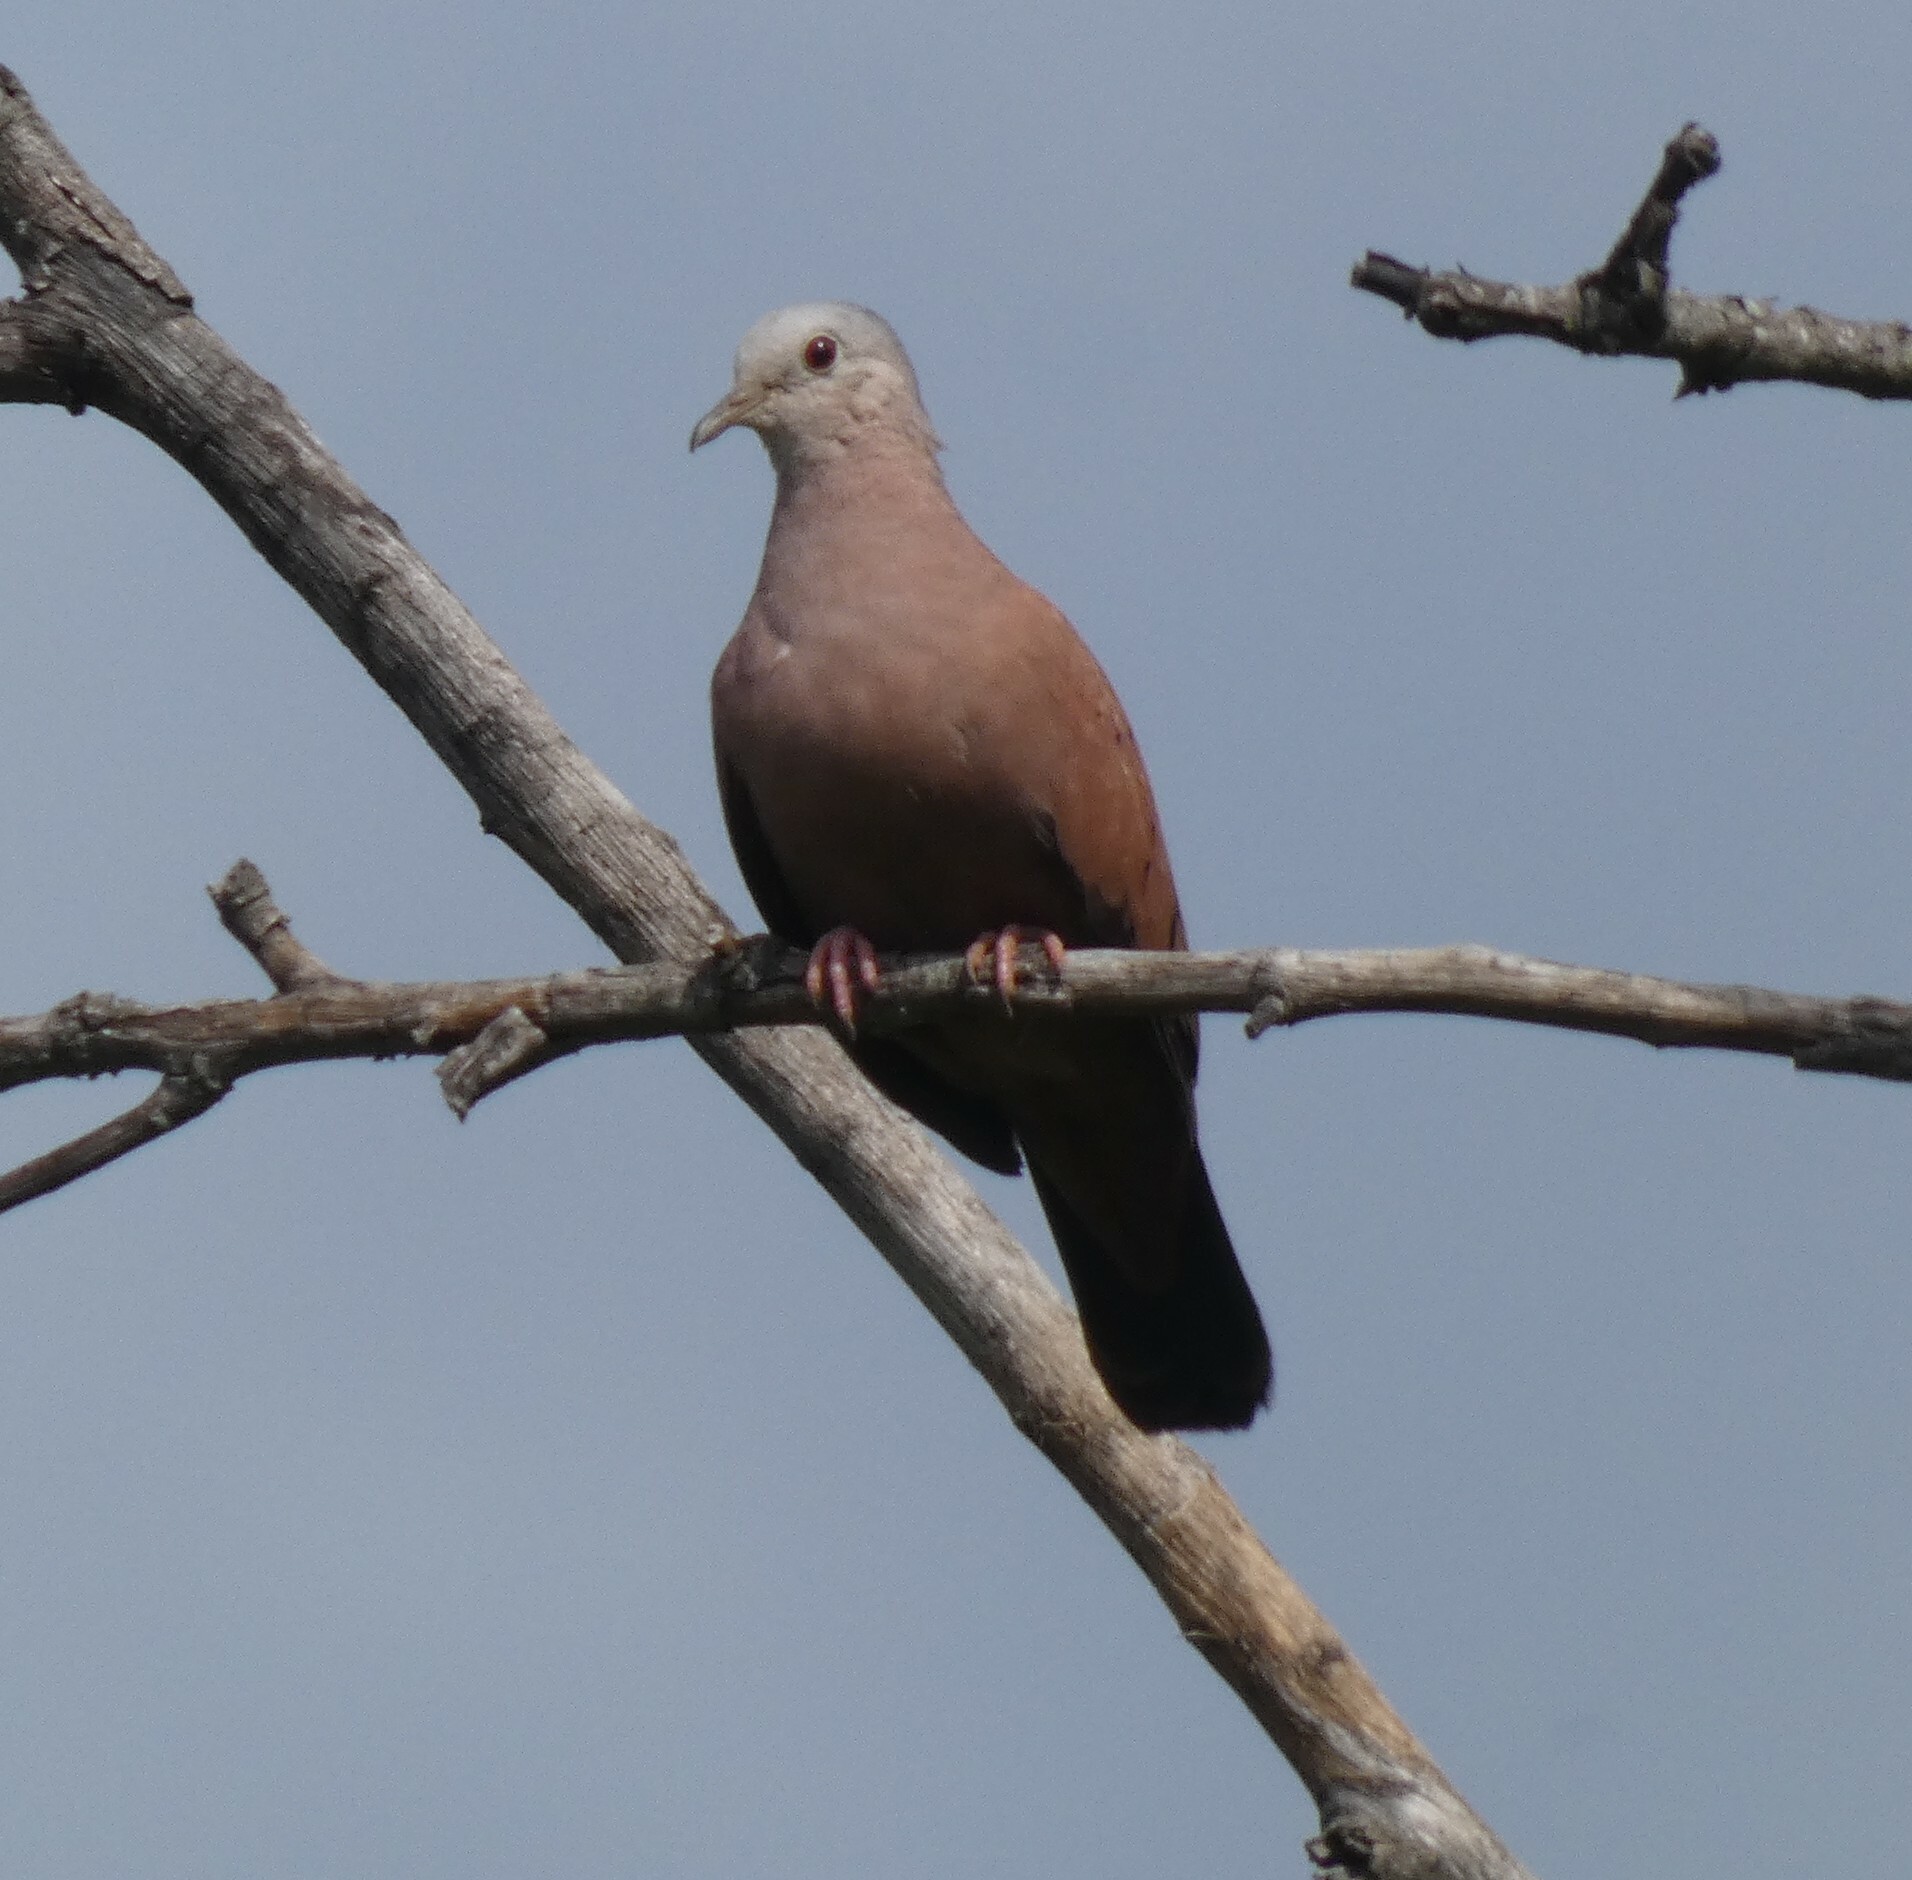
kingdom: Animalia
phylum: Chordata
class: Aves
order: Columbiformes
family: Columbidae
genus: Columbina
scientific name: Columbina talpacoti
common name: Ruddy ground dove
